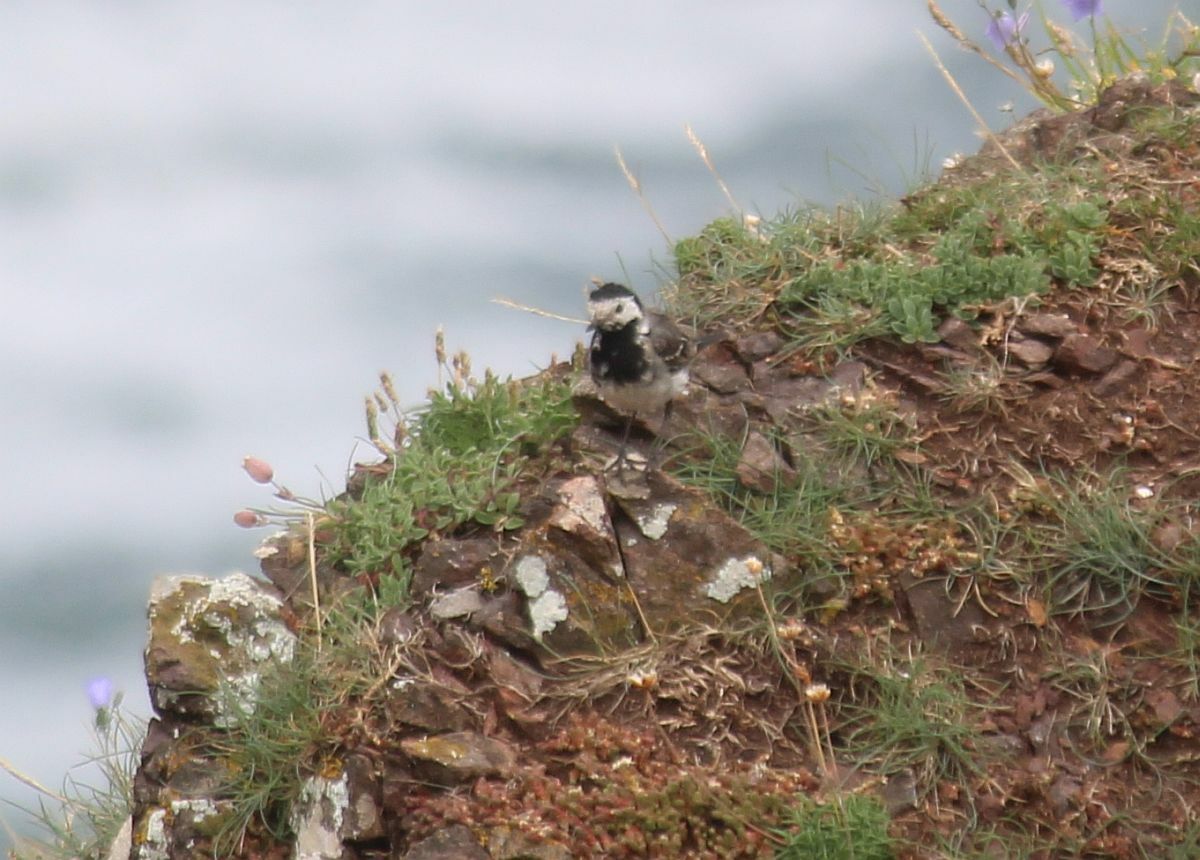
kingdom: Animalia
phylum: Chordata
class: Aves
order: Passeriformes
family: Motacillidae
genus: Motacilla
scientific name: Motacilla alba
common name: White wagtail
